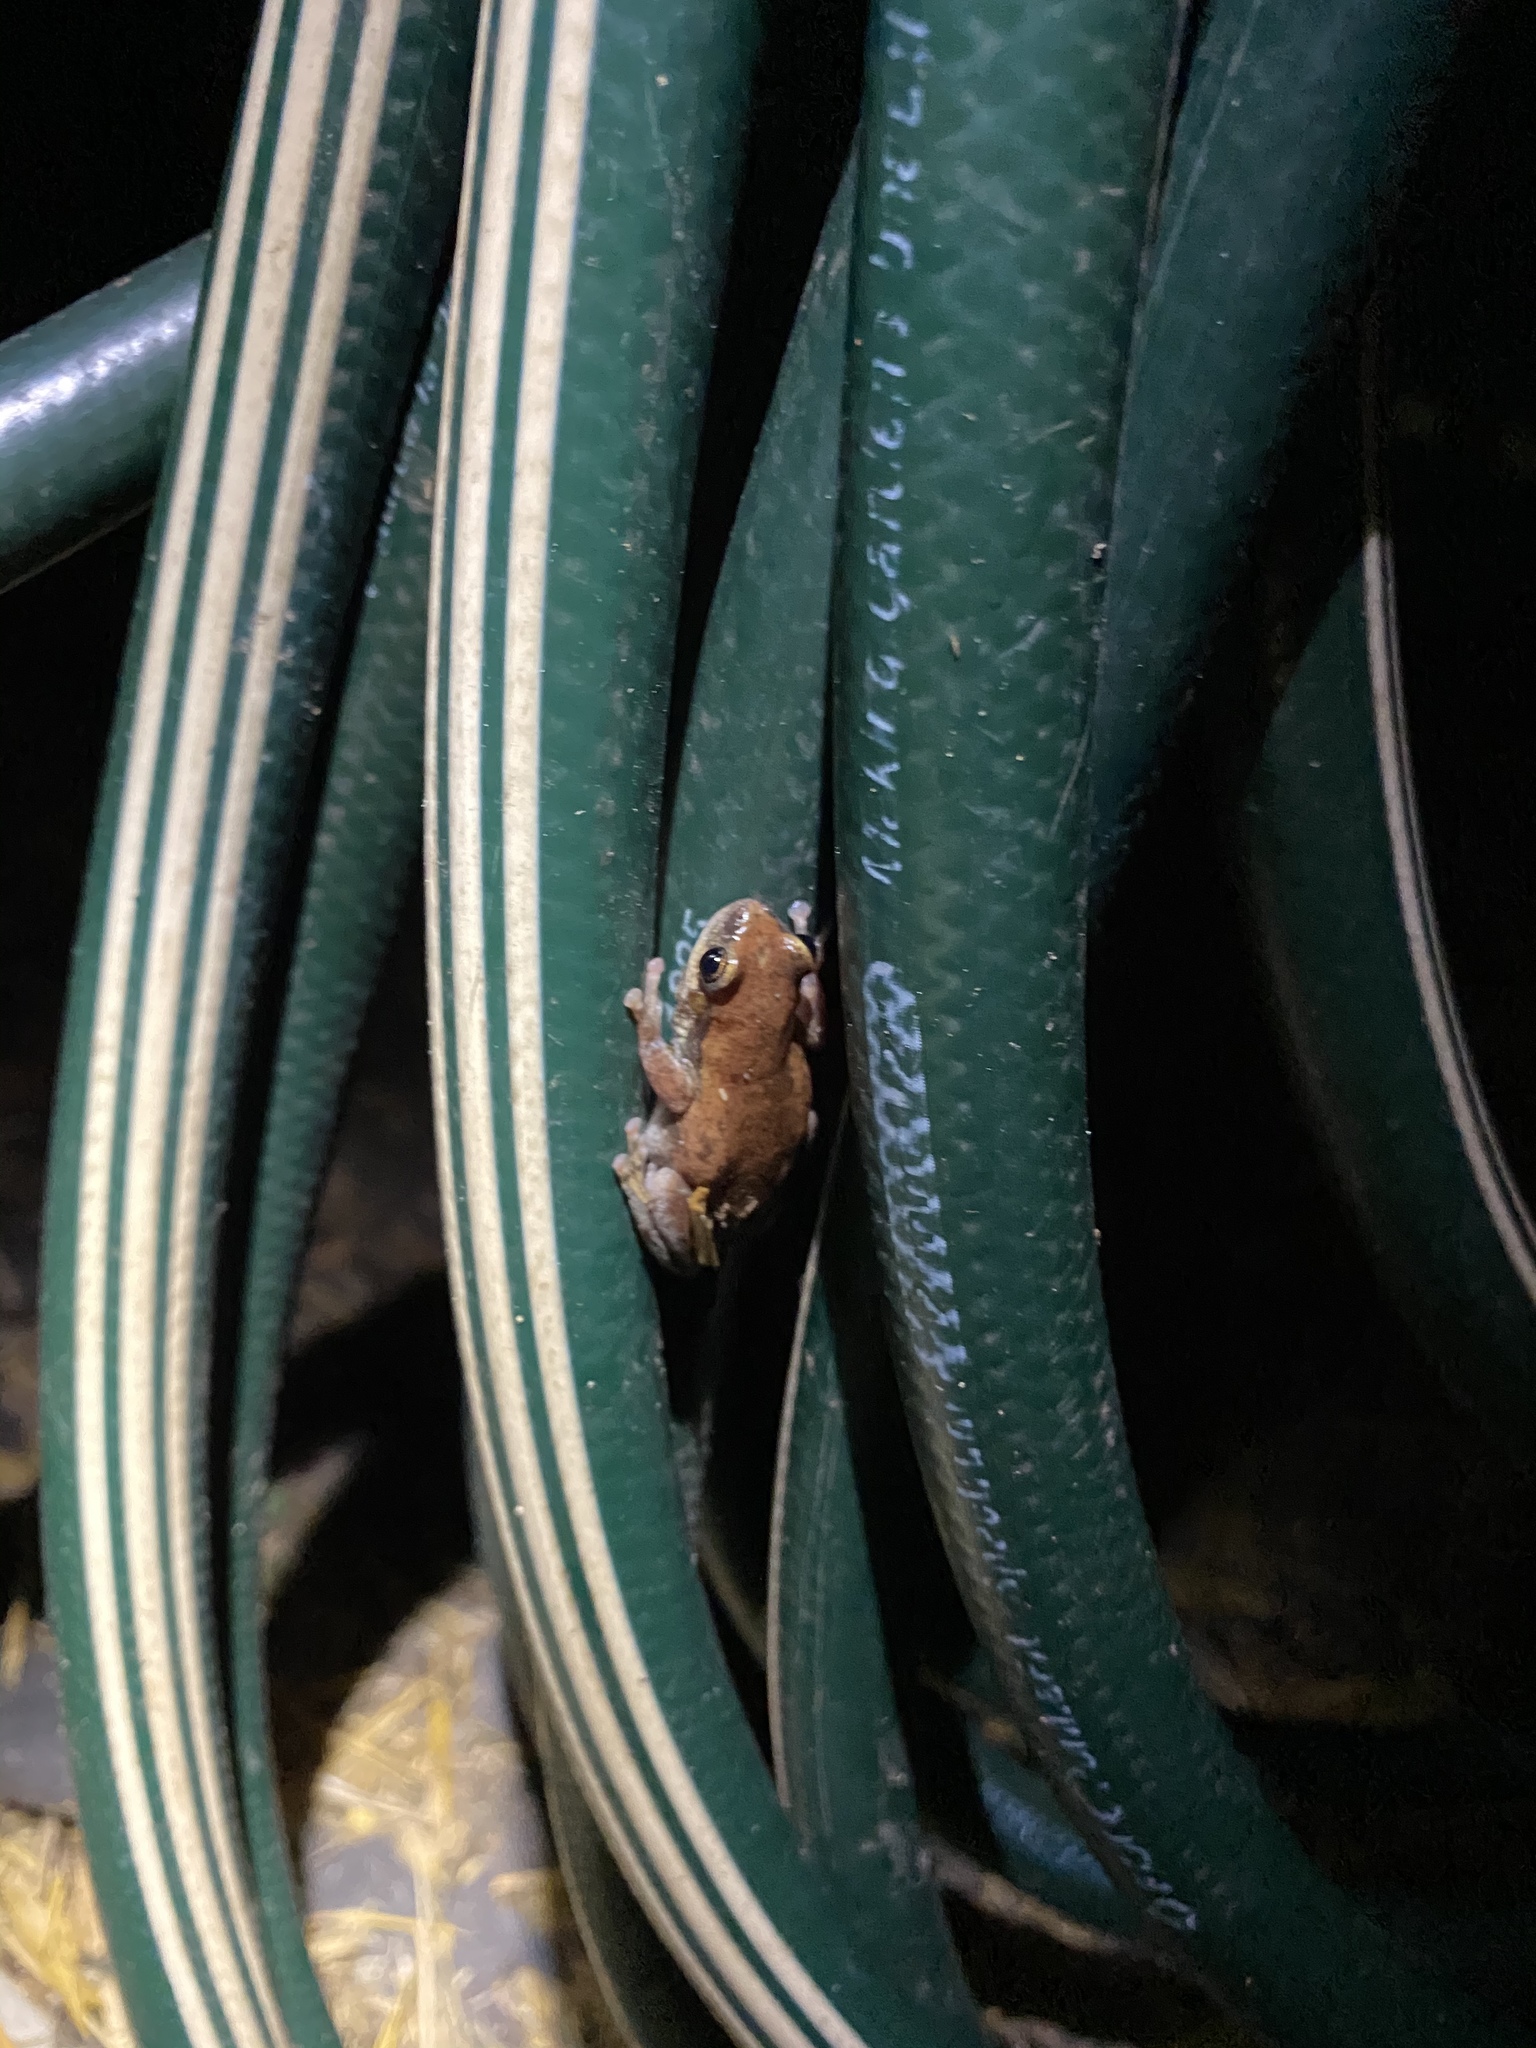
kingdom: Animalia
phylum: Chordata
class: Amphibia
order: Anura
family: Pelodryadidae
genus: Litoria
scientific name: Litoria rubella
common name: Desert tree frog
